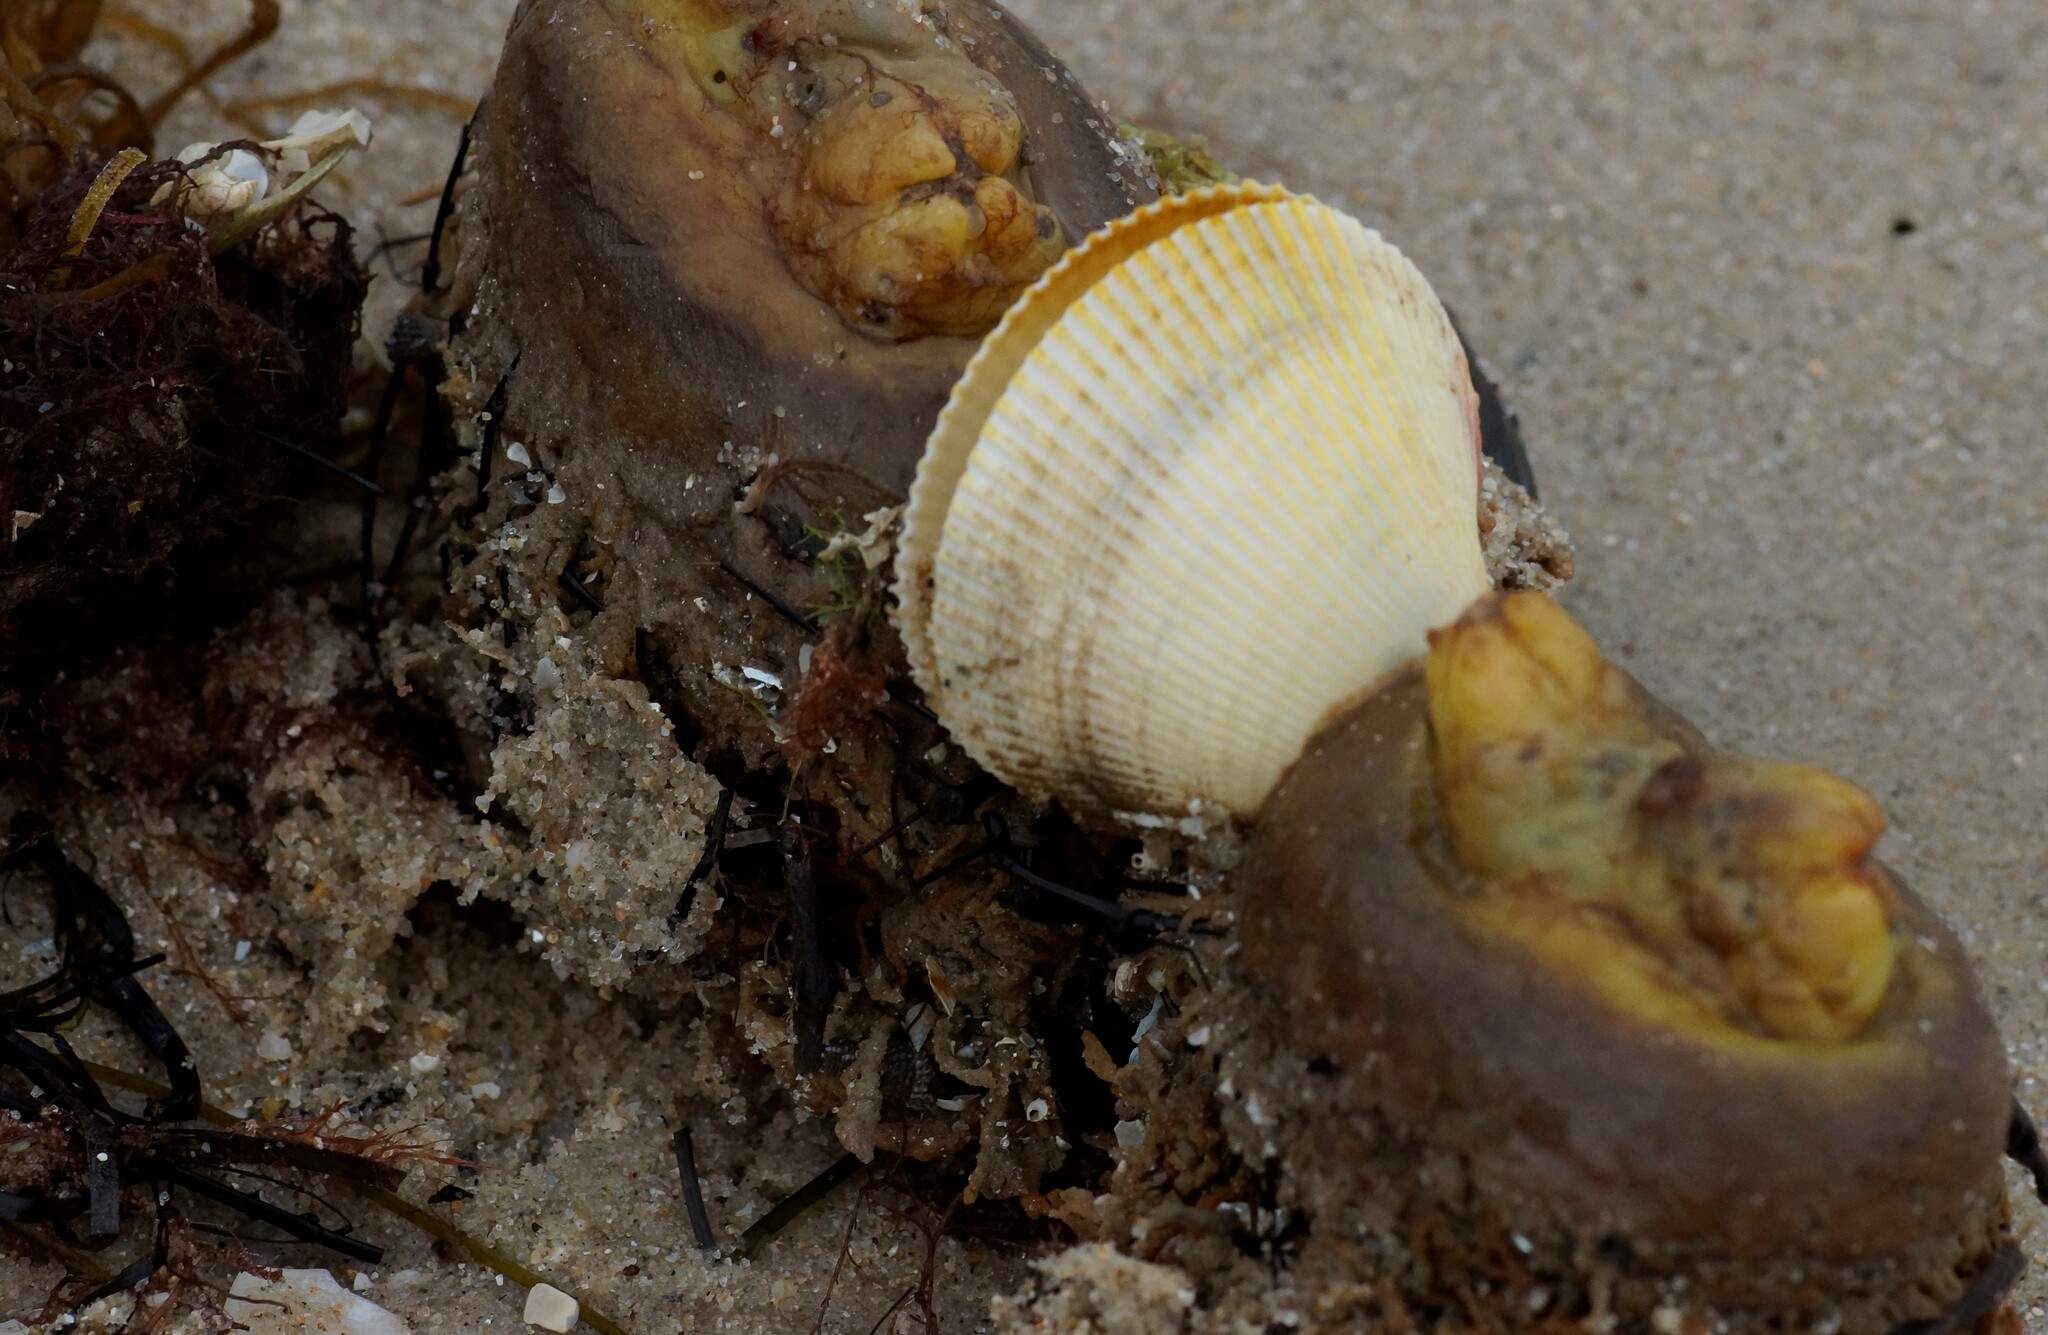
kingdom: Animalia
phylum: Mollusca
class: Bivalvia
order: Cardiida
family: Cardiidae
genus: Fulvia
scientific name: Fulvia tenuicostata
